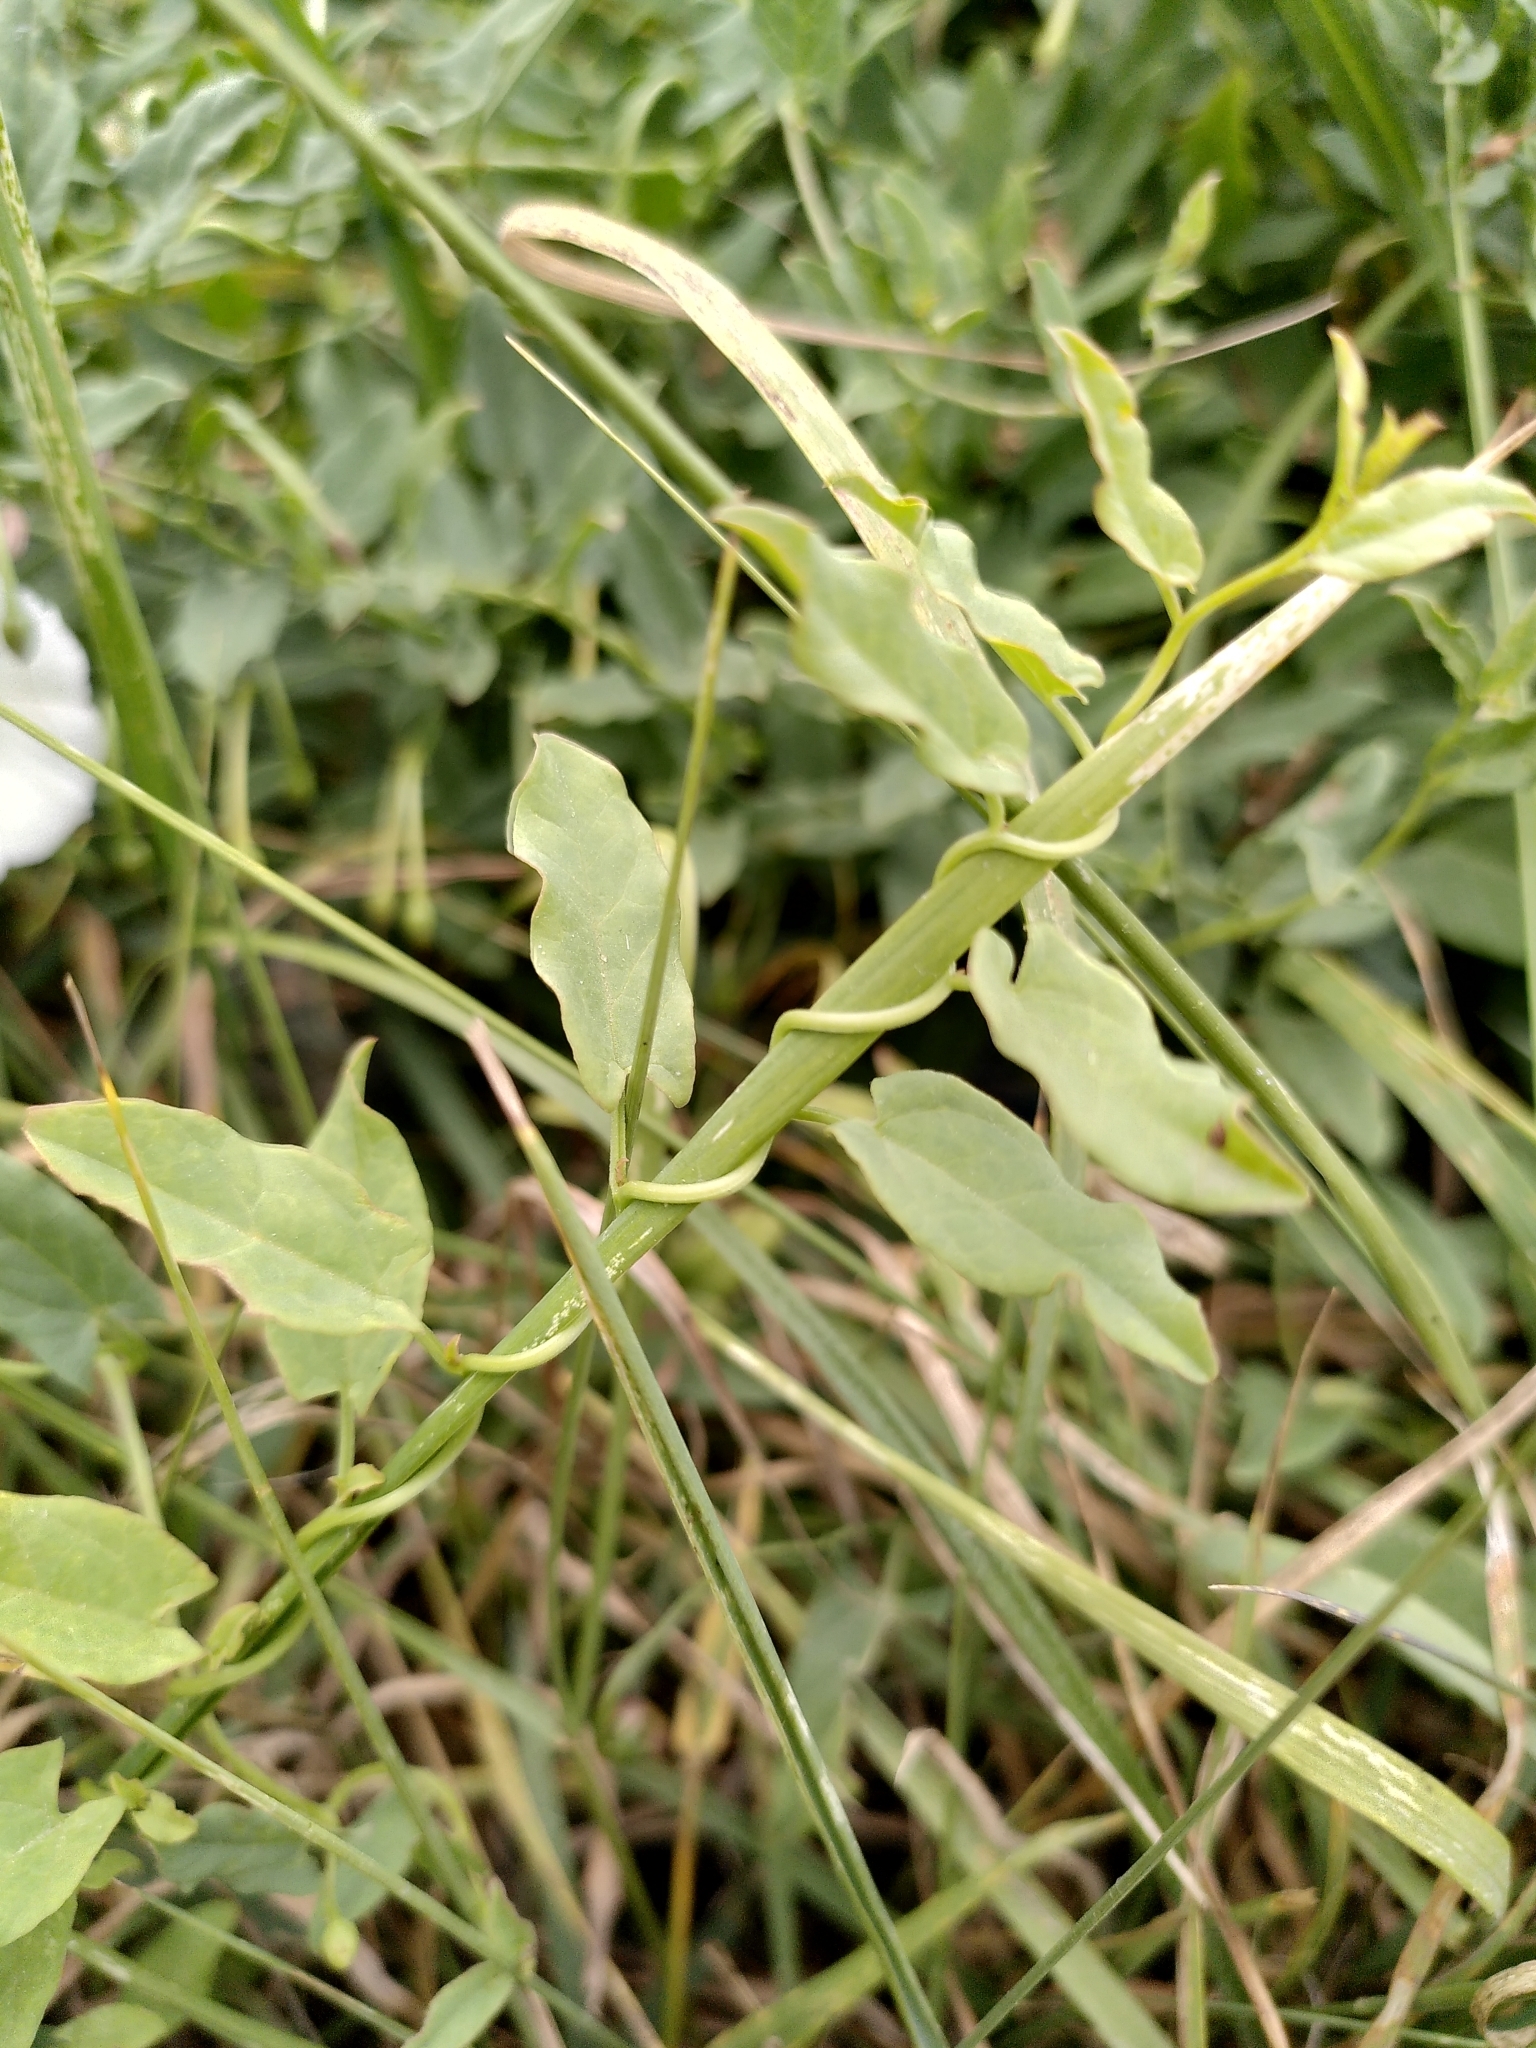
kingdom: Plantae
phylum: Tracheophyta
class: Magnoliopsida
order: Solanales
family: Convolvulaceae
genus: Convolvulus
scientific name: Convolvulus arvensis
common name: Field bindweed
